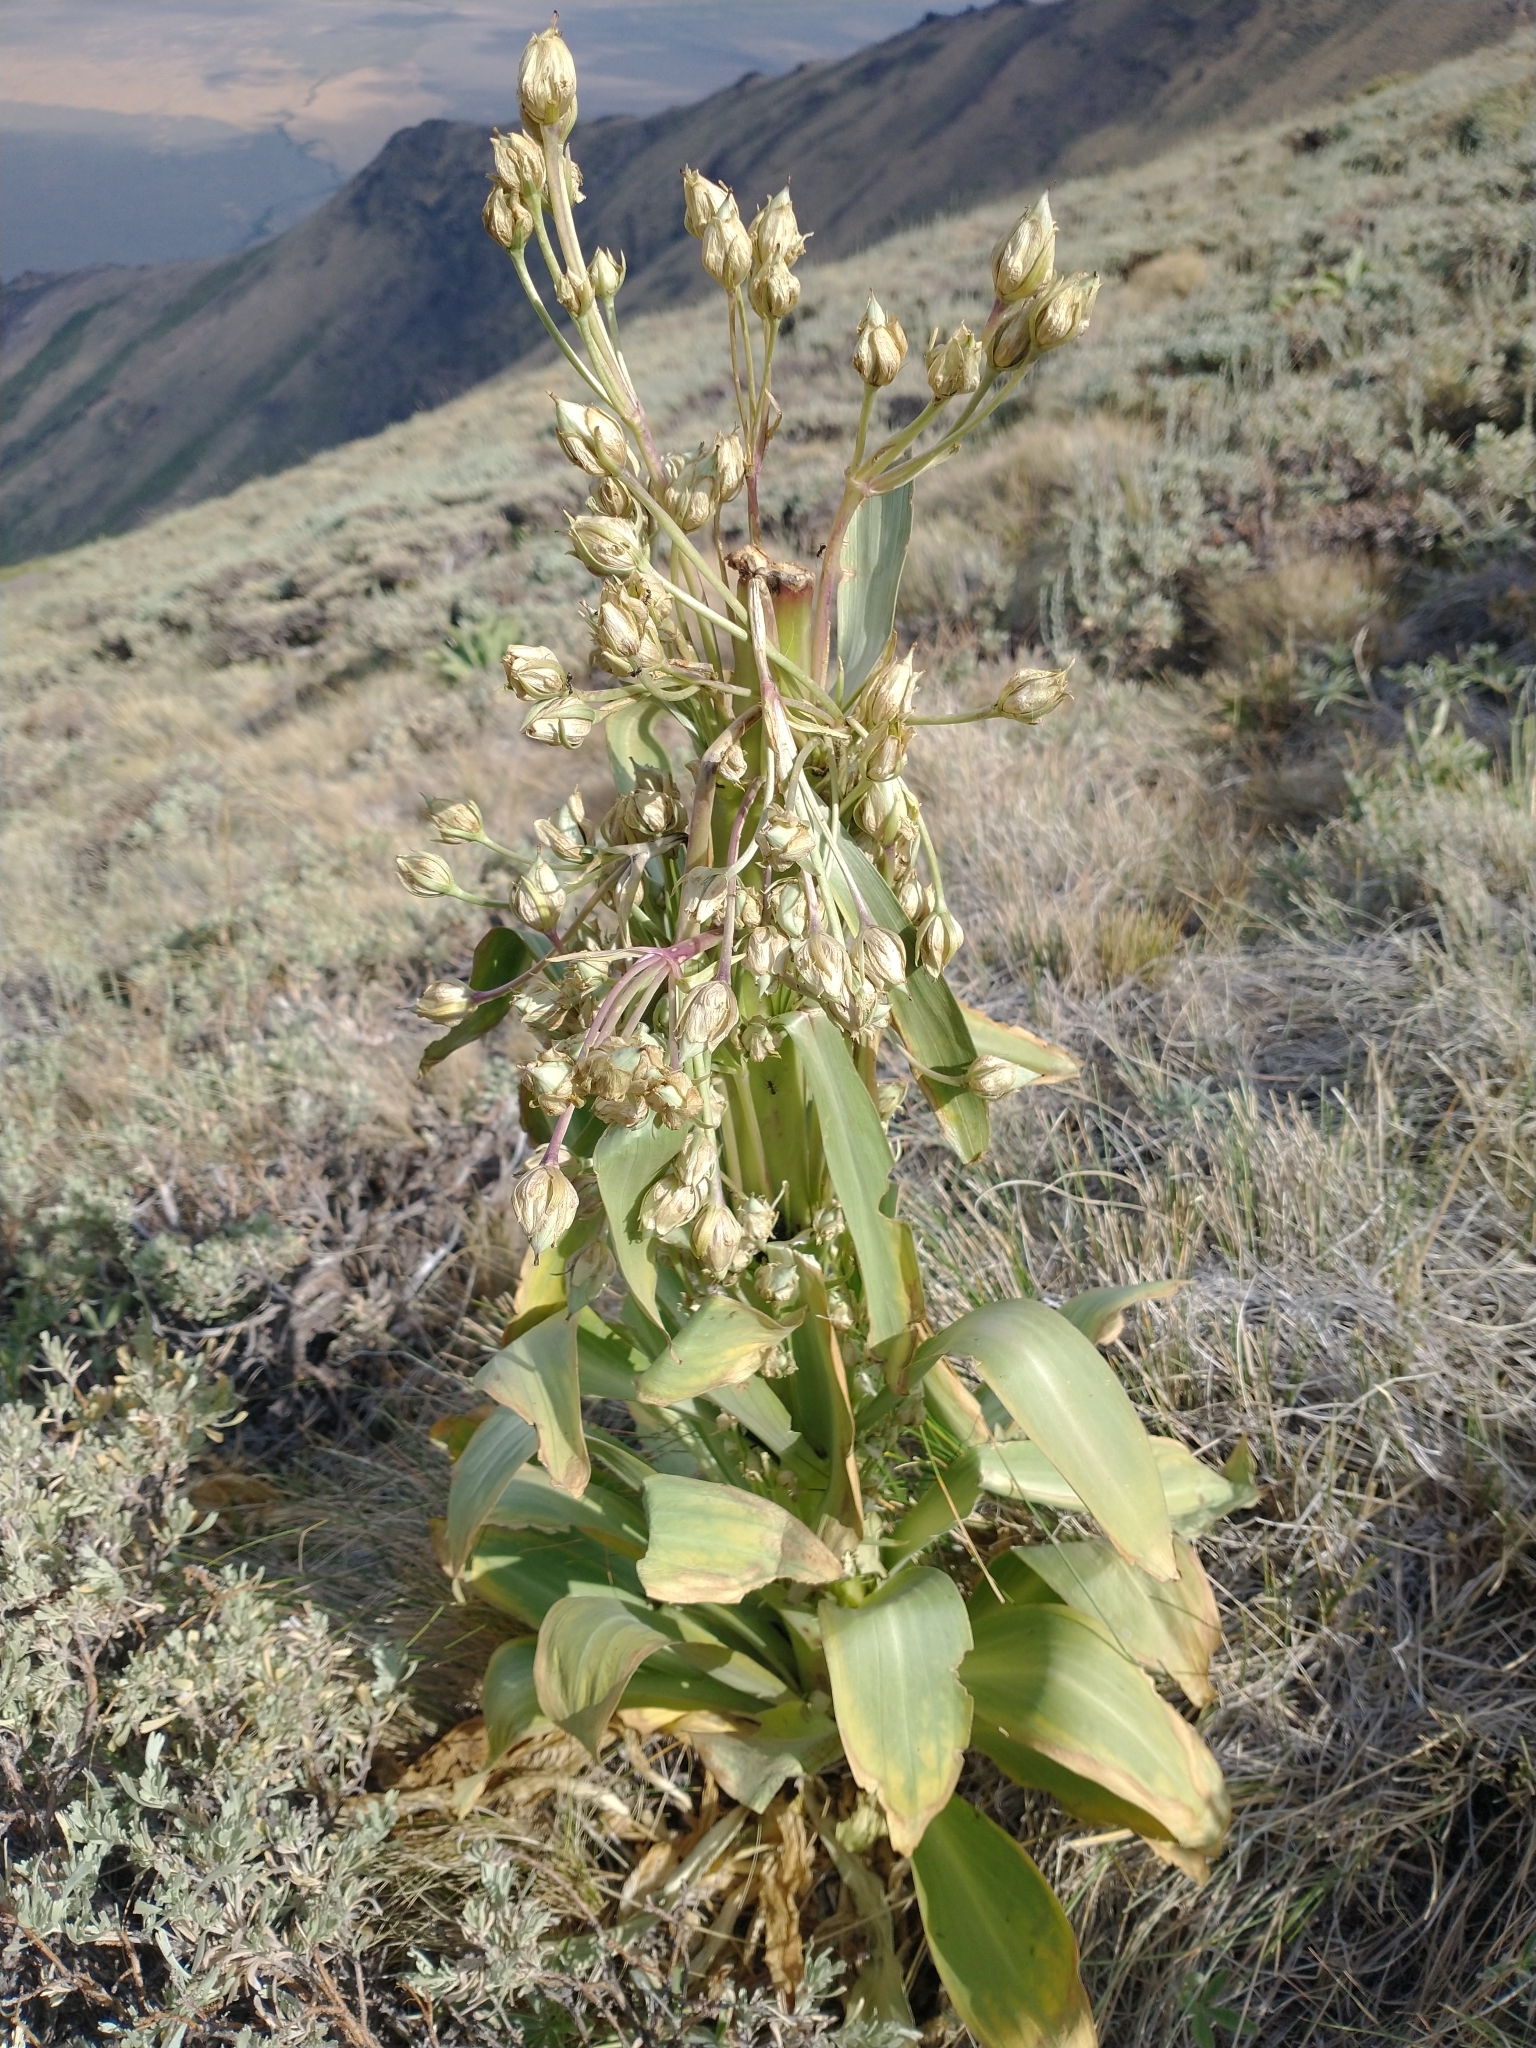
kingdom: Plantae
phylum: Tracheophyta
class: Magnoliopsida
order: Gentianales
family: Gentianaceae
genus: Frasera
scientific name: Frasera speciosa
